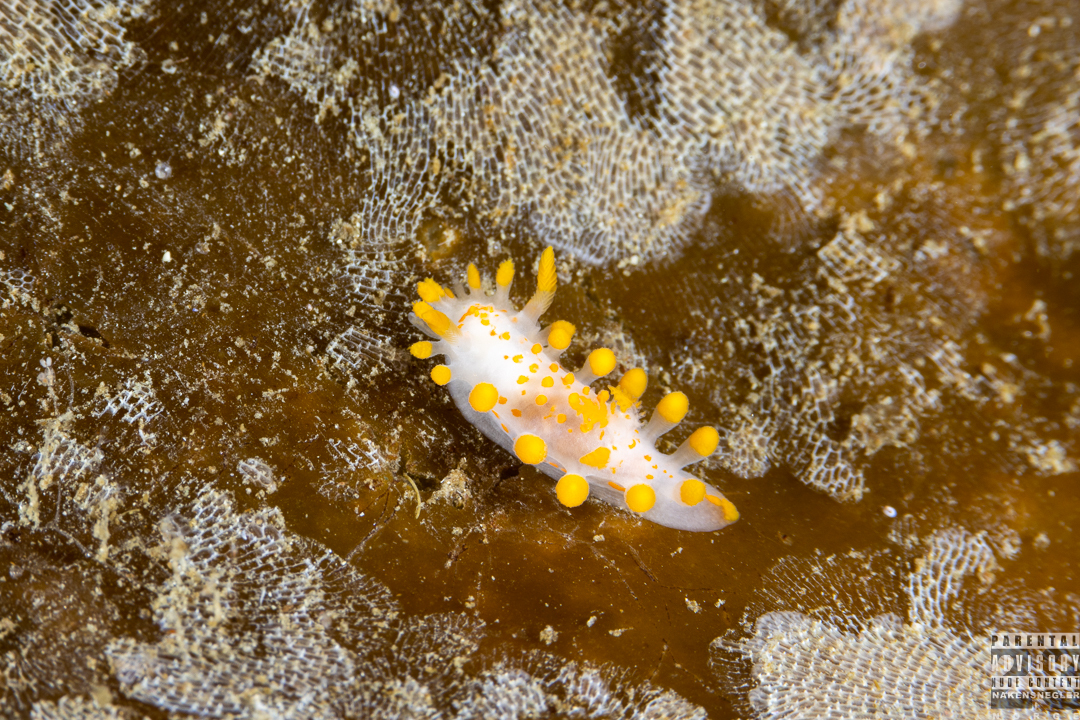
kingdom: Animalia
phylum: Mollusca
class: Gastropoda
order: Nudibranchia
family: Polyceridae
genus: Limacia
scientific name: Limacia clavigera
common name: Orange-clubbed sea slug
